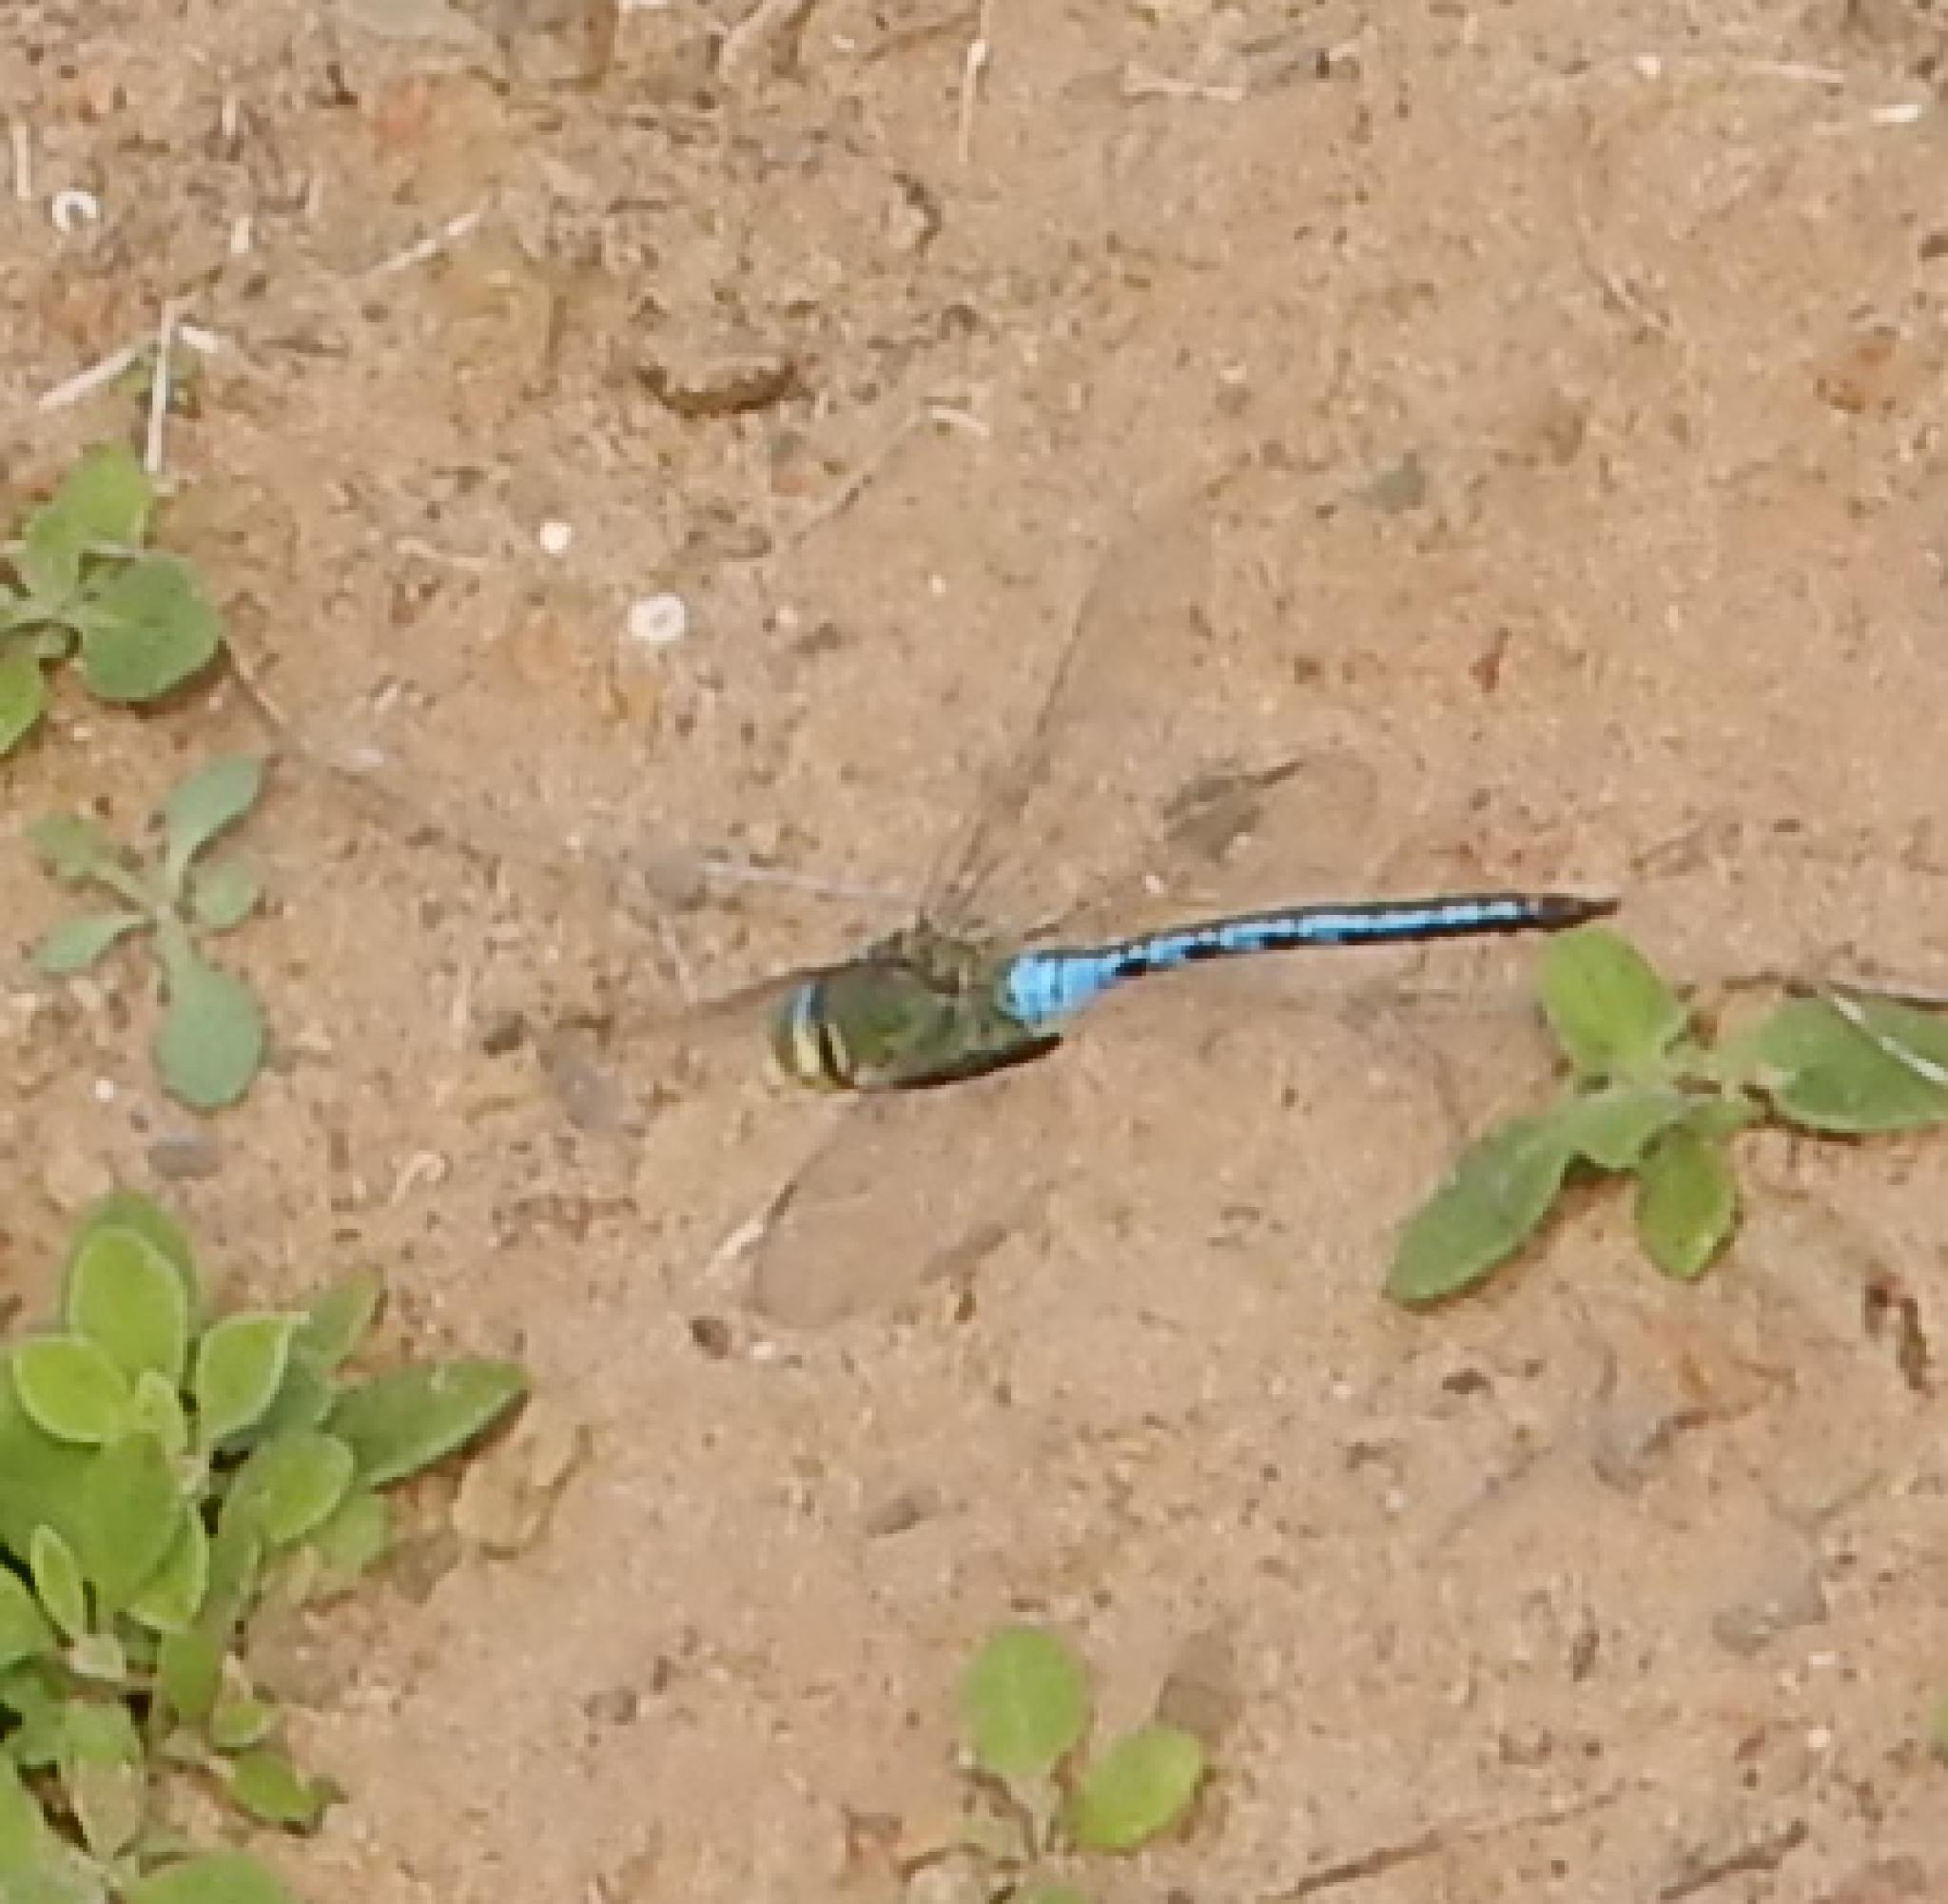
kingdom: Animalia
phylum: Arthropoda
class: Insecta
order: Odonata
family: Aeshnidae
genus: Anax
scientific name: Anax imperator
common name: Emperor dragonfly
